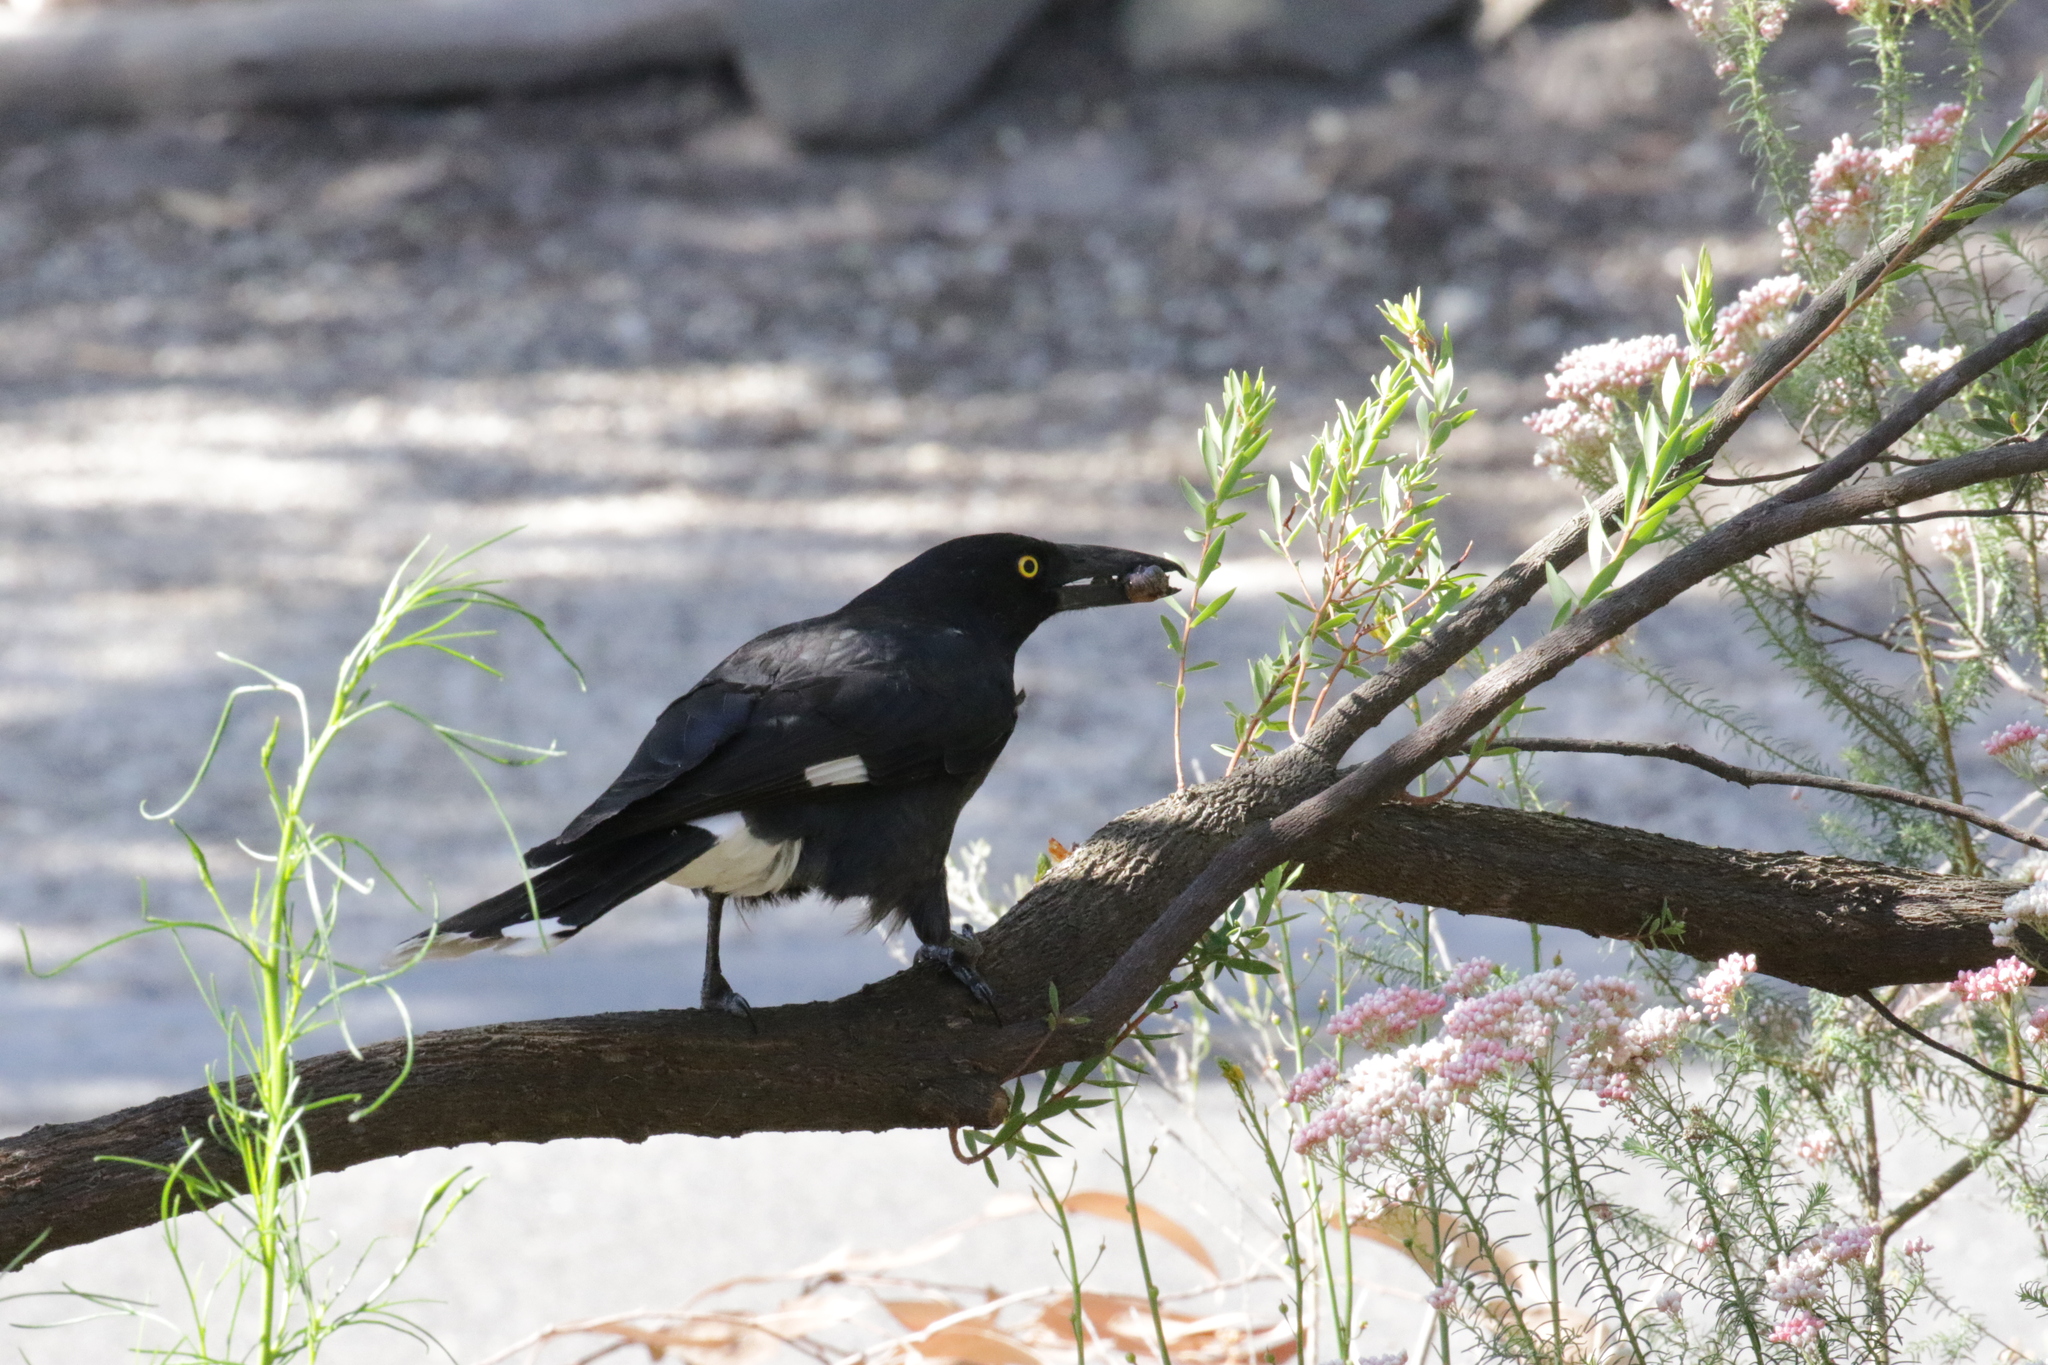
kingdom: Animalia
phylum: Chordata
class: Aves
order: Passeriformes
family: Cracticidae
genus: Strepera
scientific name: Strepera graculina
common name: Pied currawong
